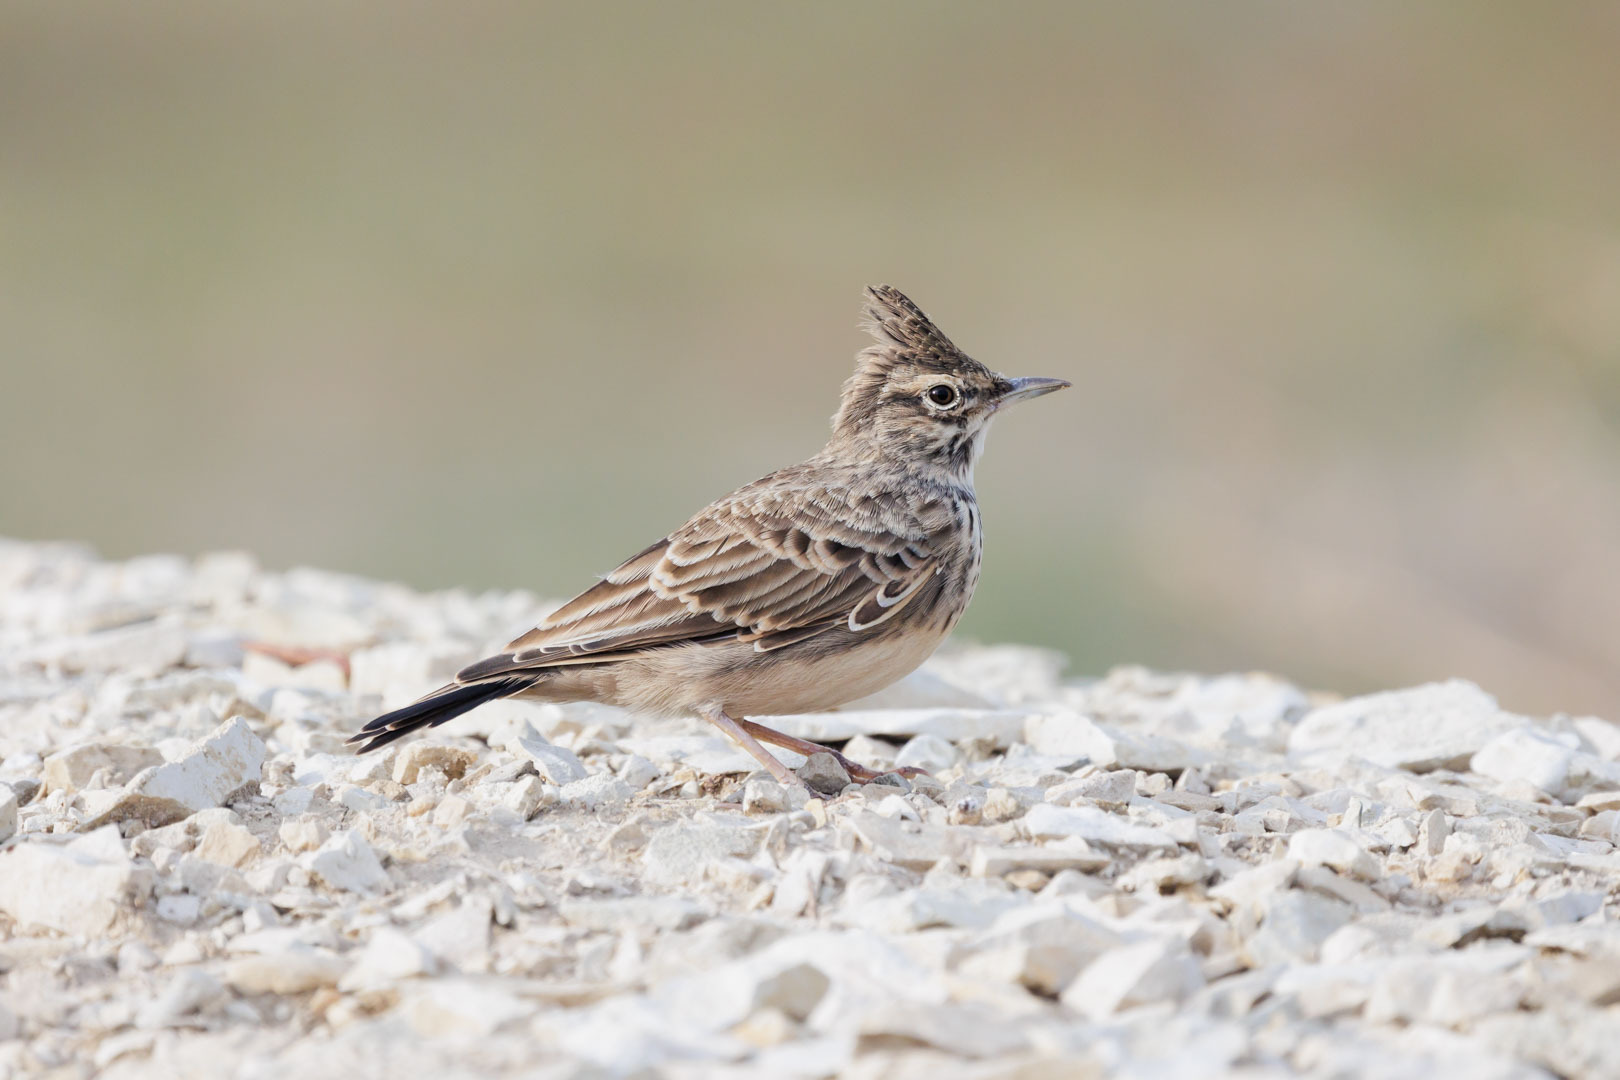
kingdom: Animalia
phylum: Chordata
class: Aves
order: Passeriformes
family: Alaudidae
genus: Galerida
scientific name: Galerida cristata
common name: Crested lark
